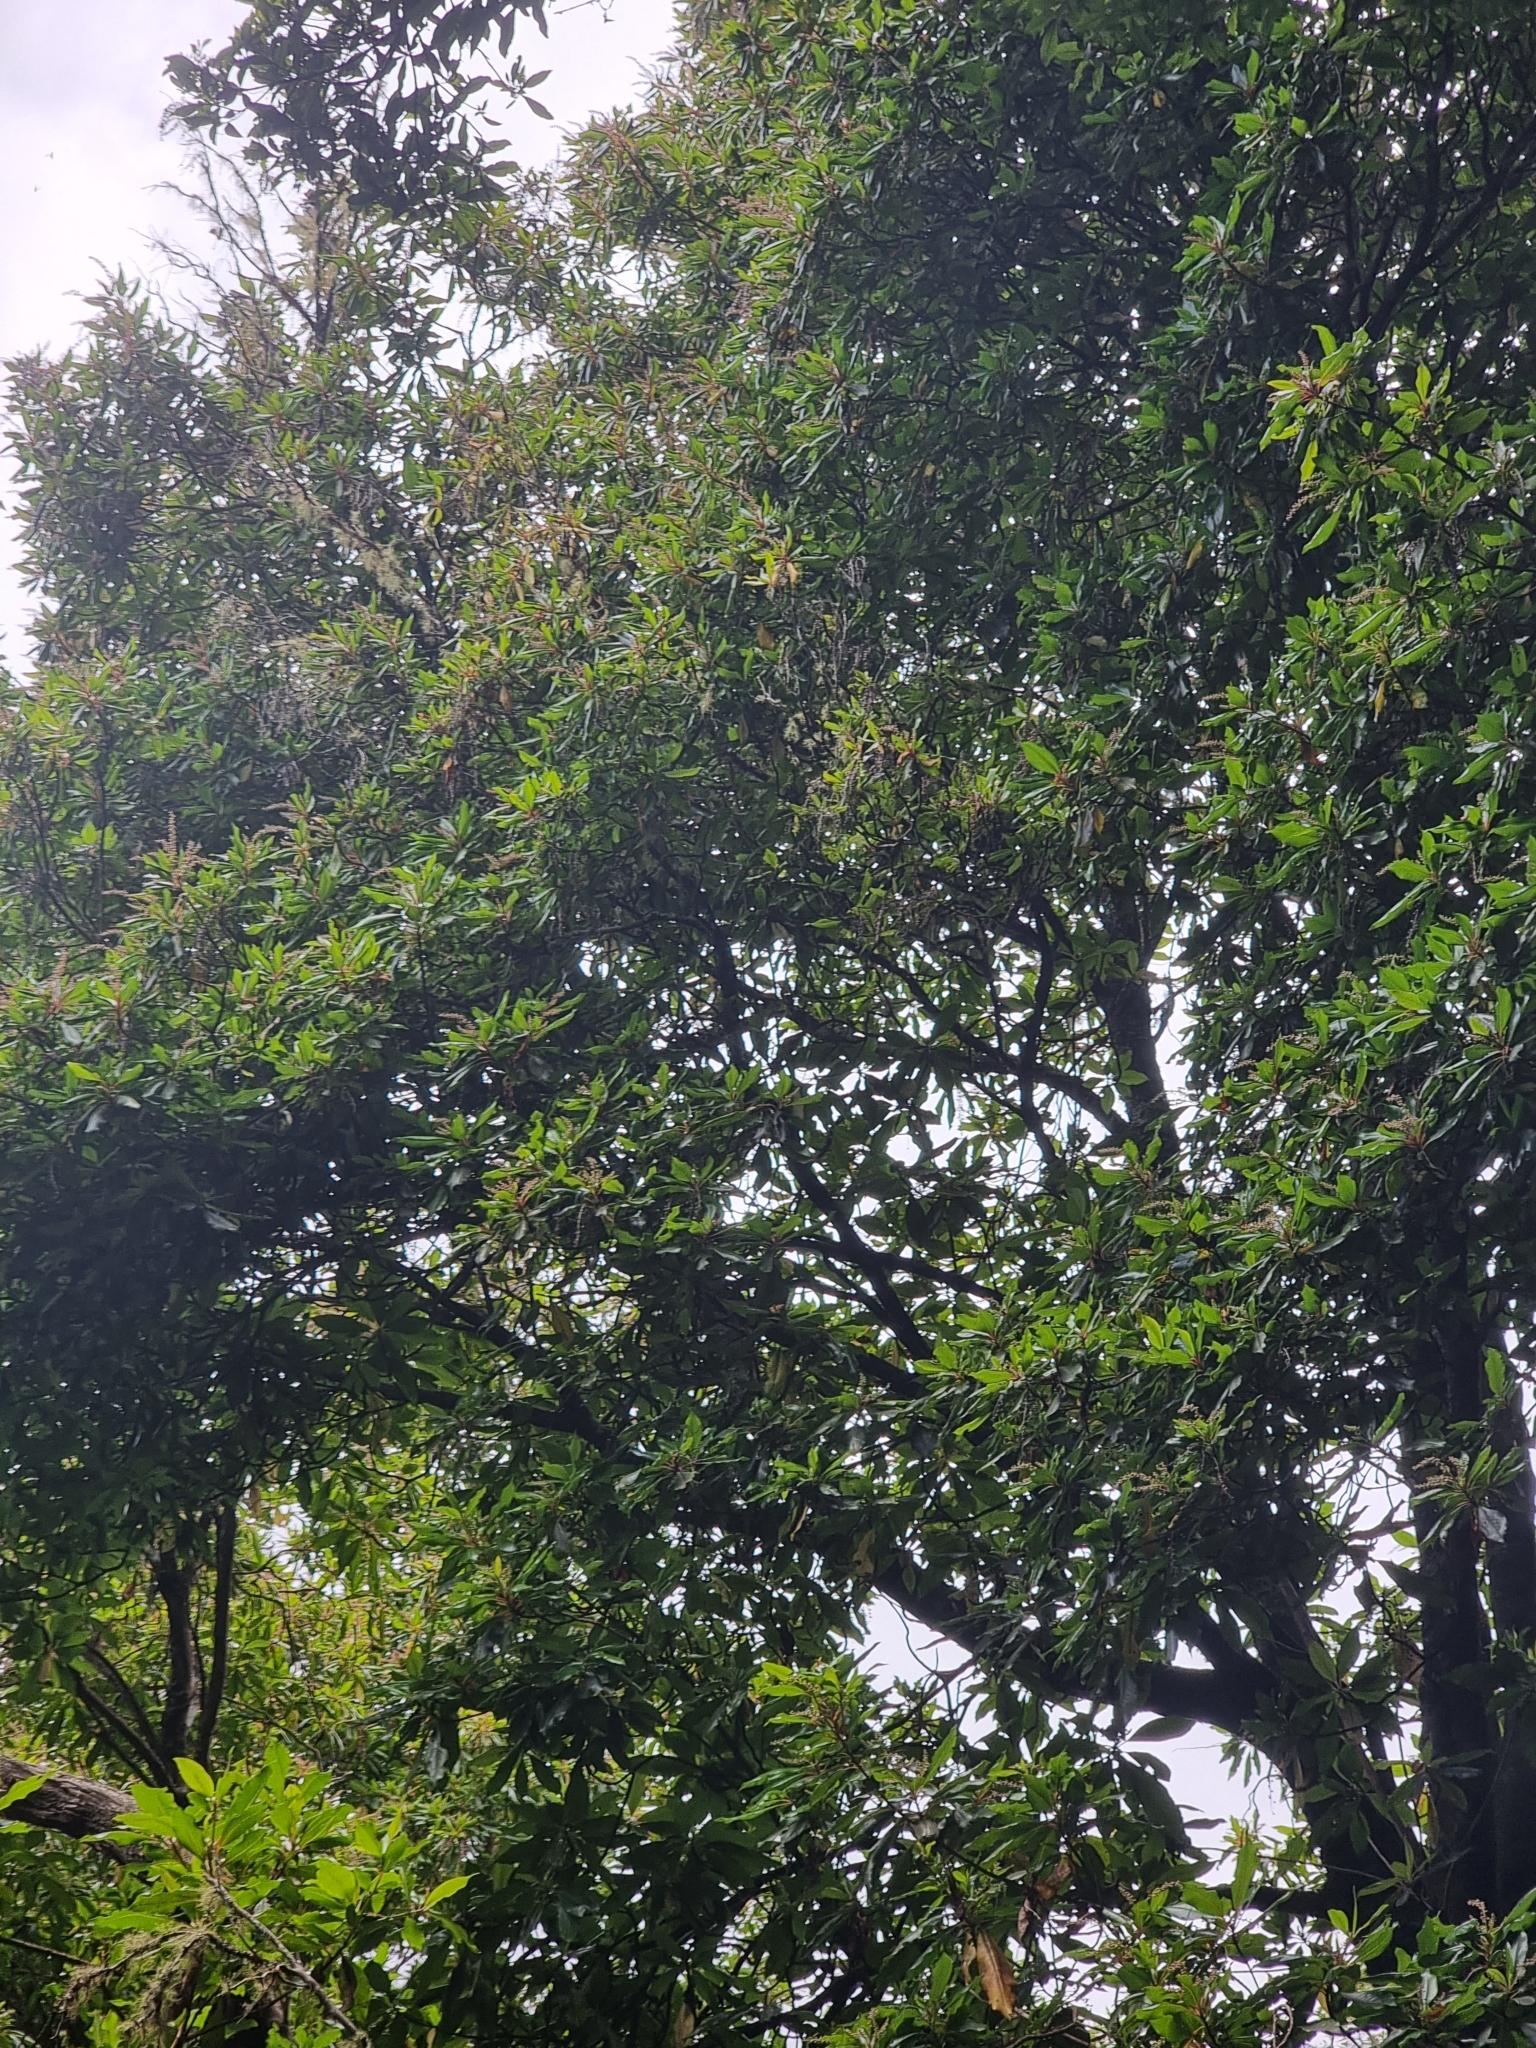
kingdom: Plantae
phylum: Tracheophyta
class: Magnoliopsida
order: Ericales
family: Clethraceae
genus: Clethra
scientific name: Clethra arborea
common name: Lily-of-the-valley-tree
